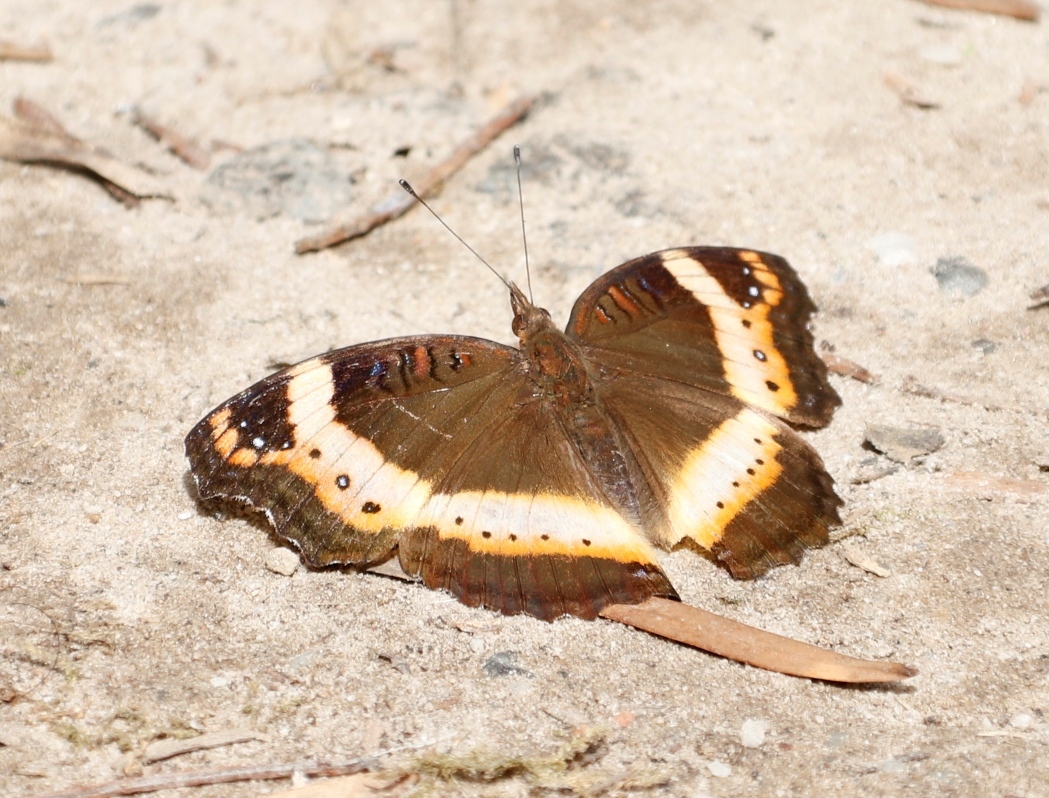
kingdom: Animalia
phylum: Arthropoda
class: Insecta
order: Lepidoptera
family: Nymphalidae
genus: Junonia
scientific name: Junonia archesia
